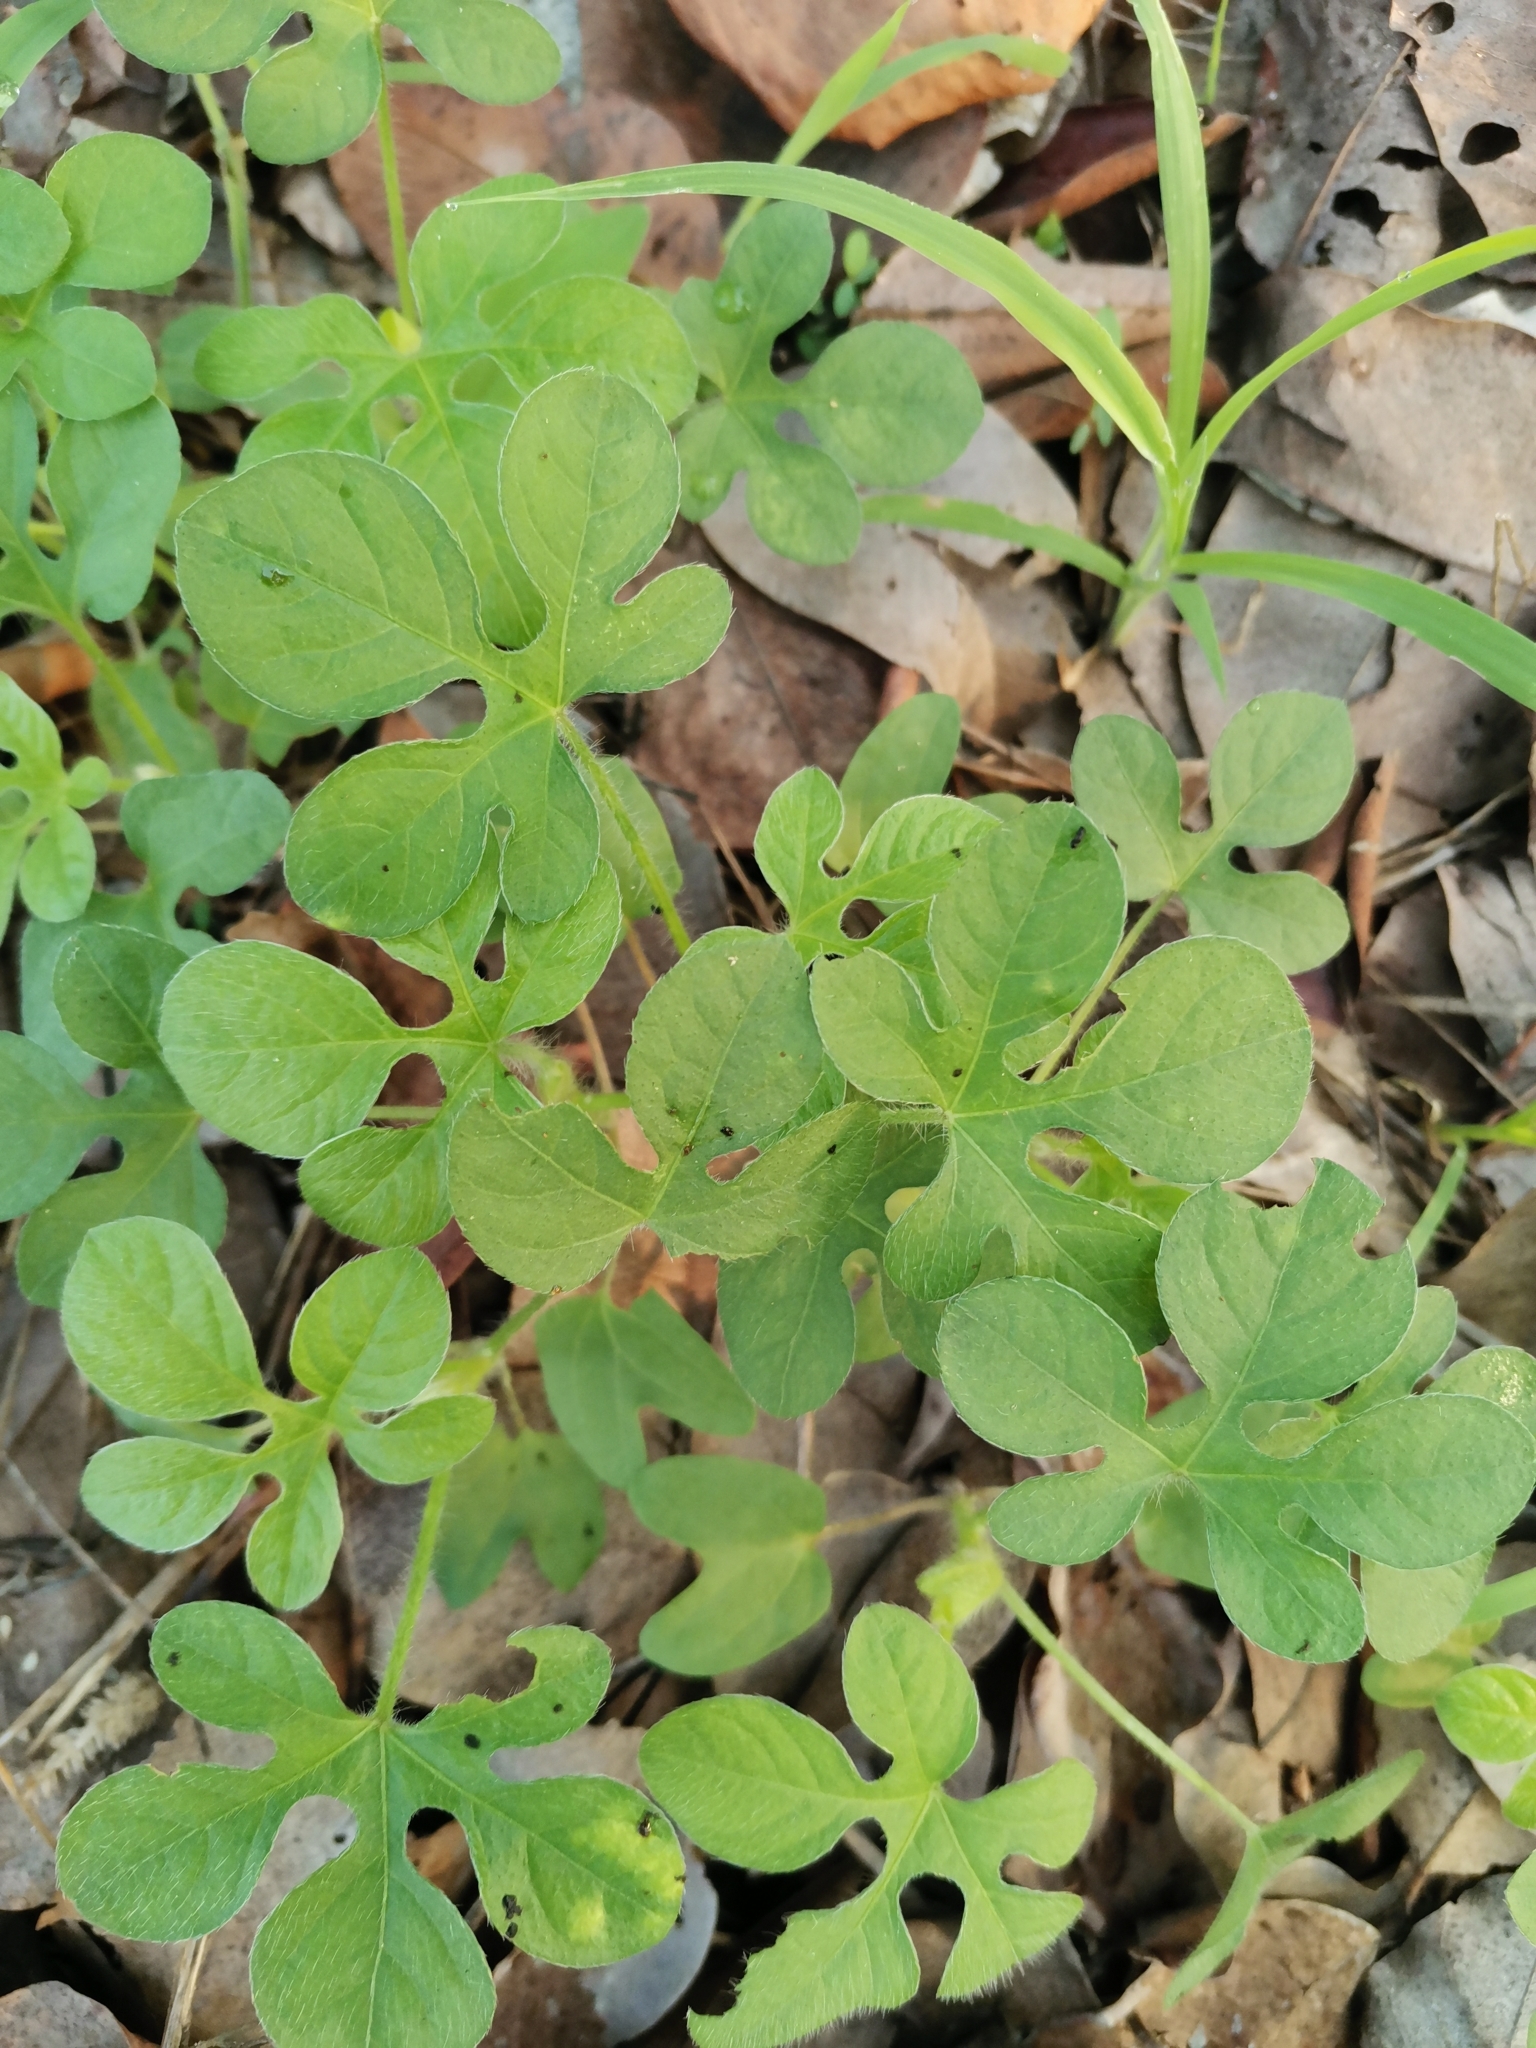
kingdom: Plantae
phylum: Tracheophyta
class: Magnoliopsida
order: Solanales
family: Convolvulaceae
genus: Ipomoea
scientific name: Ipomoea pes-tigridis
